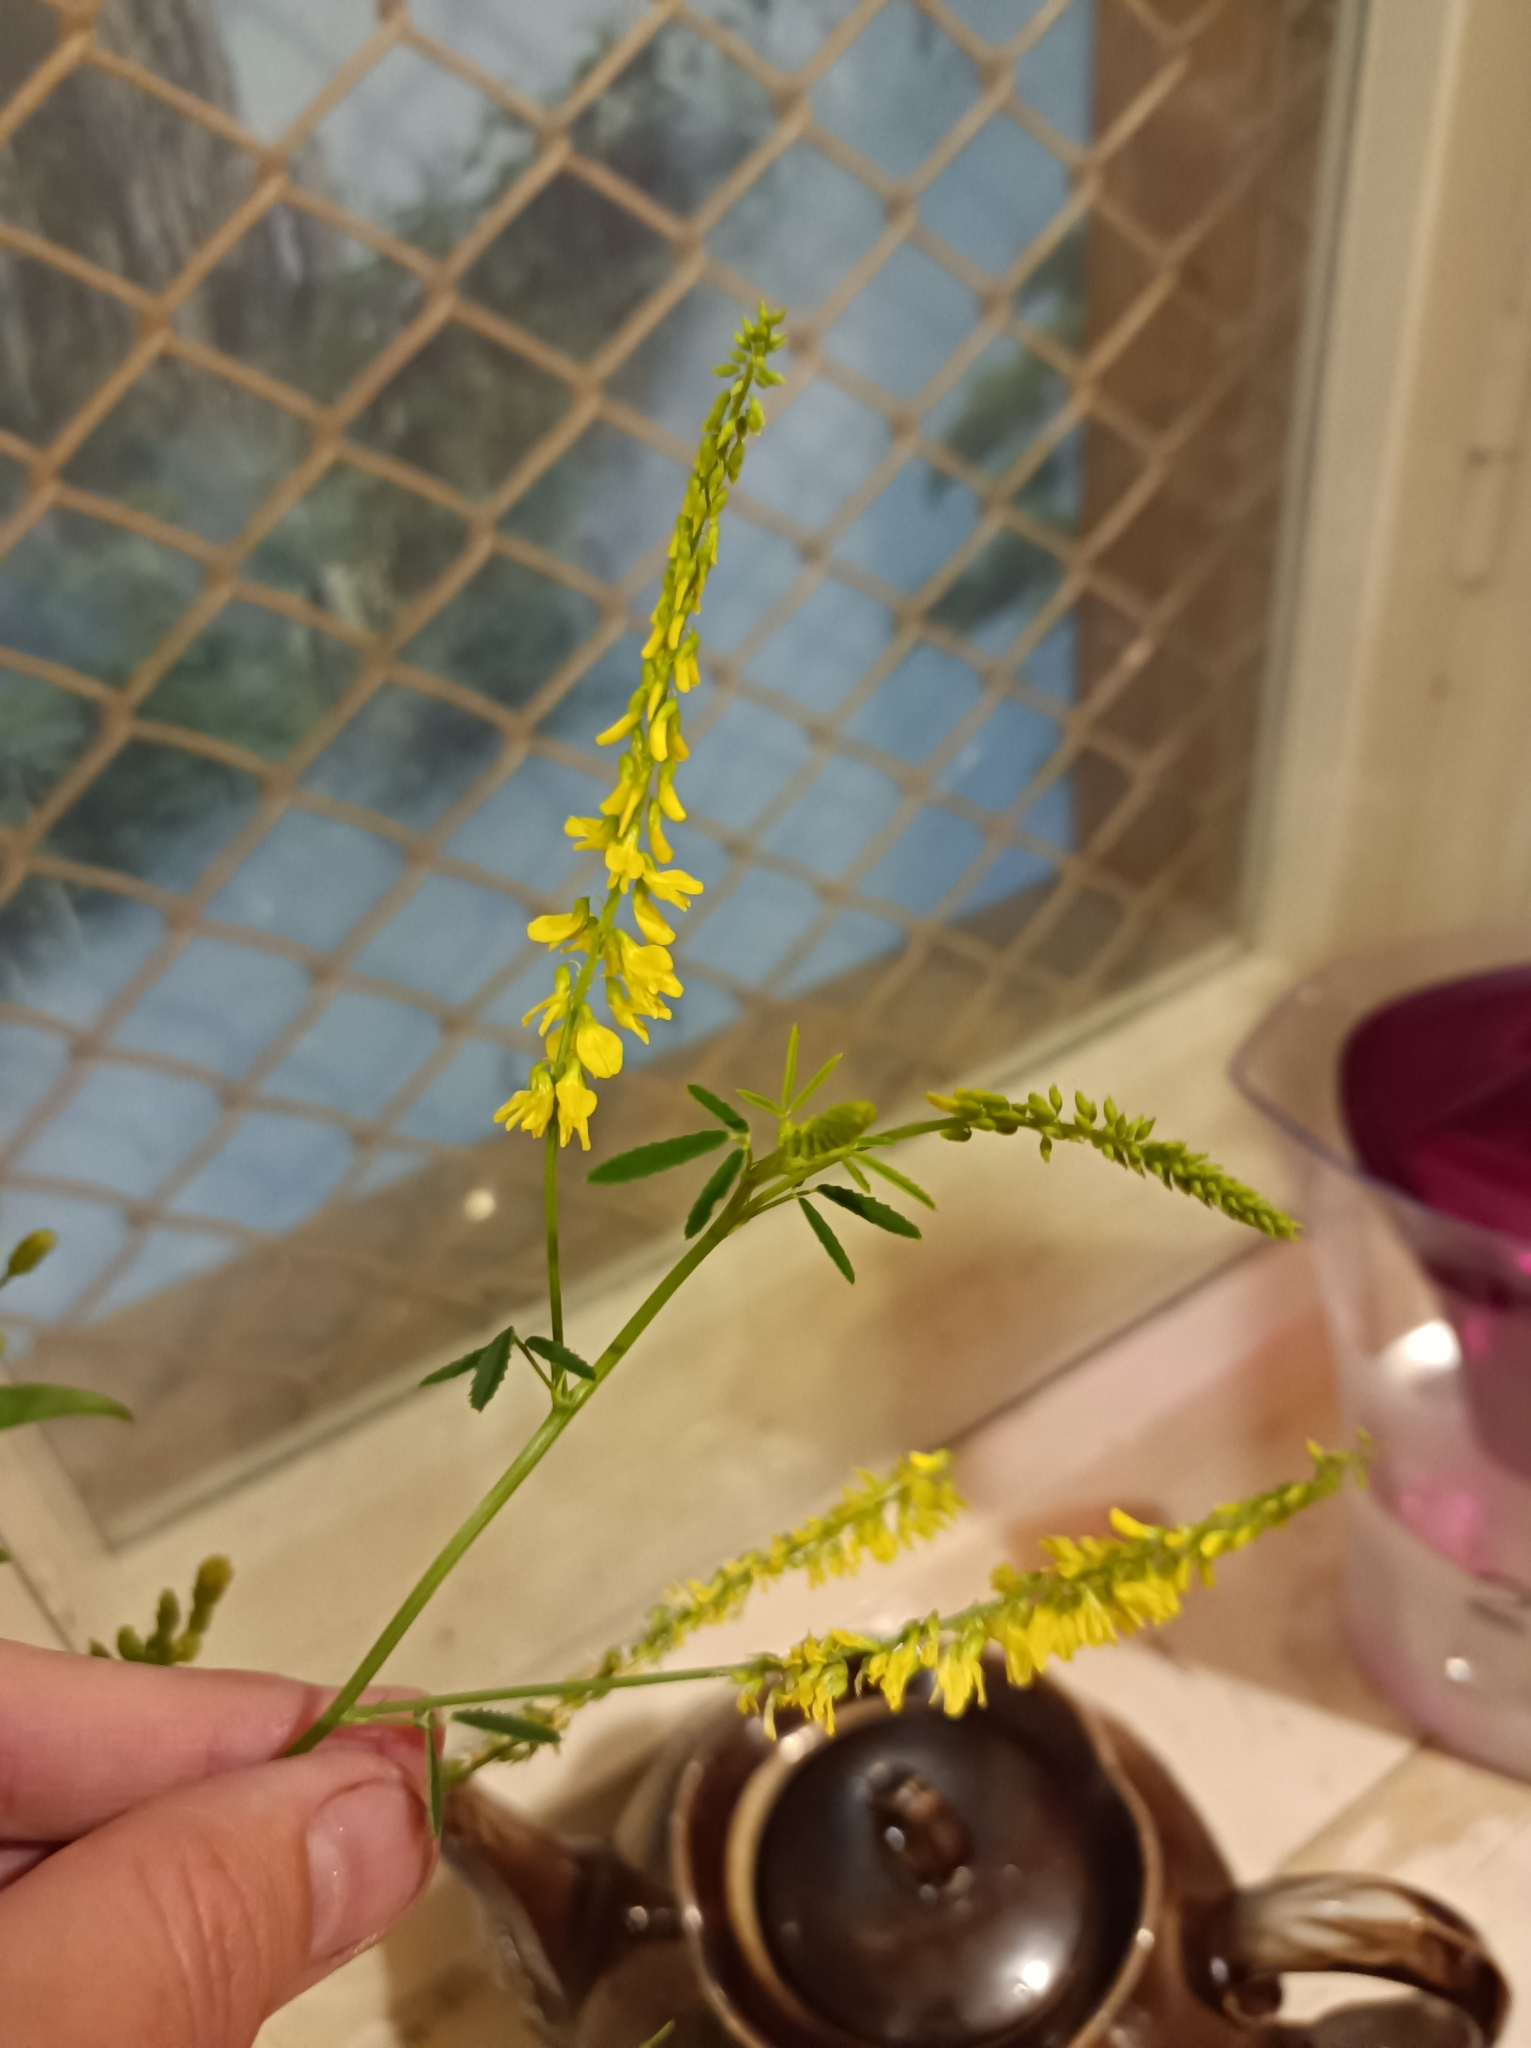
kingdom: Plantae
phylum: Tracheophyta
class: Magnoliopsida
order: Fabales
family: Fabaceae
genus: Melilotus
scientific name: Melilotus officinalis
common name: Sweetclover
